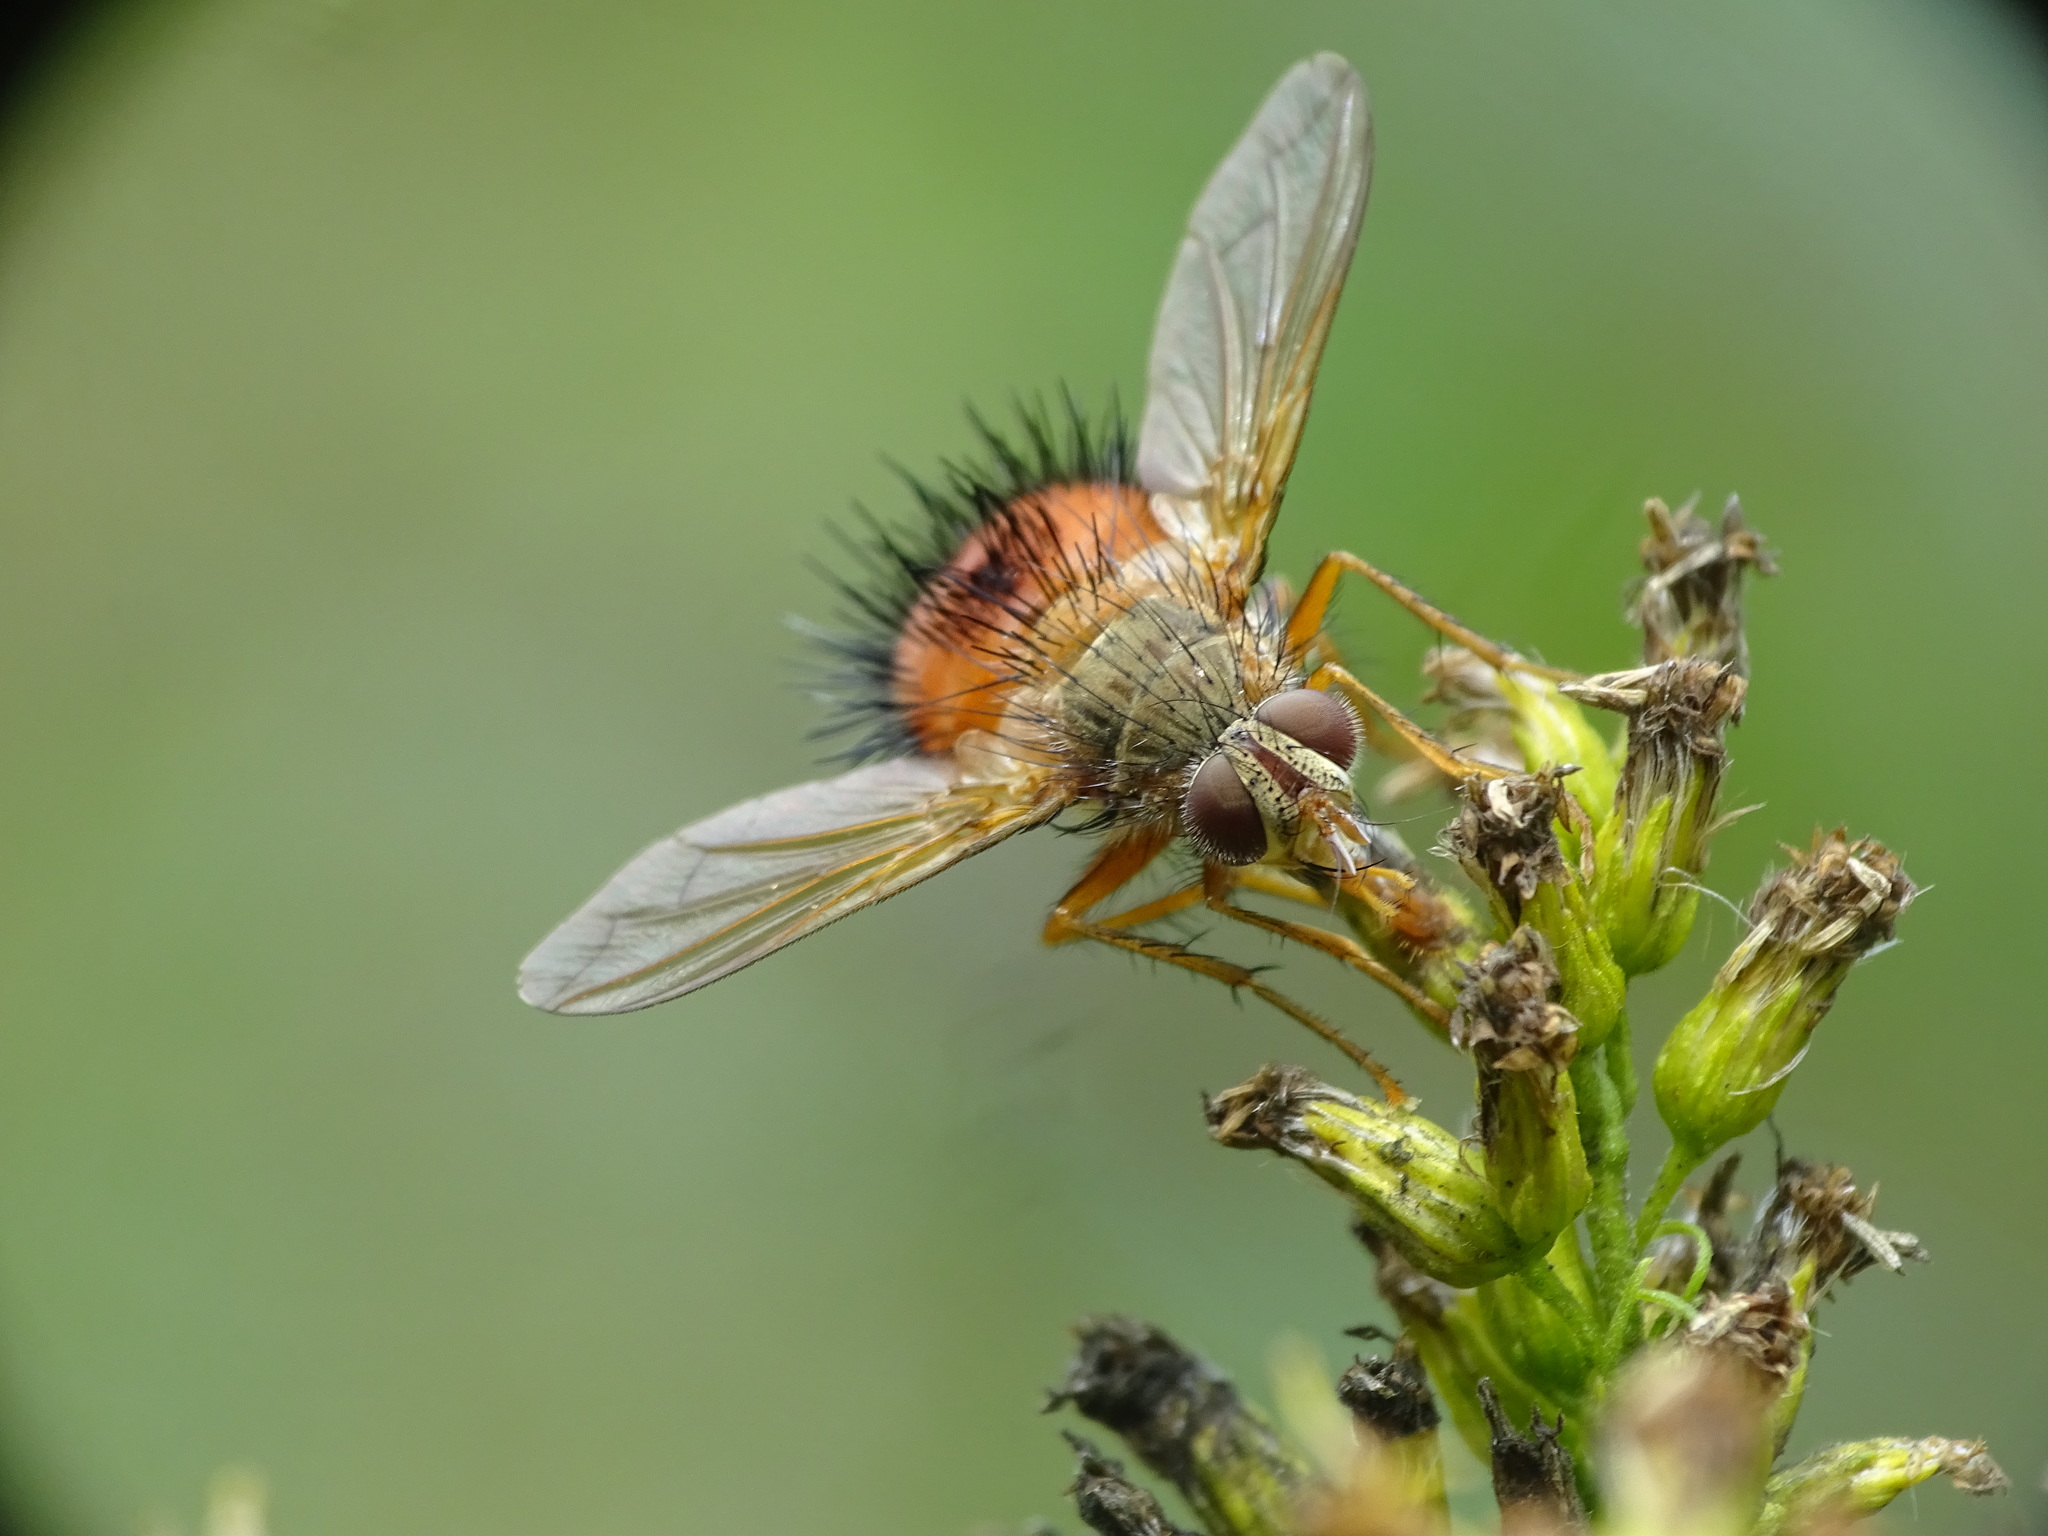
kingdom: Animalia
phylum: Arthropoda
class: Insecta
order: Diptera
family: Tachinidae
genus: Hystricia
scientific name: Hystricia abrupta
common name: Tomato bristle fly
